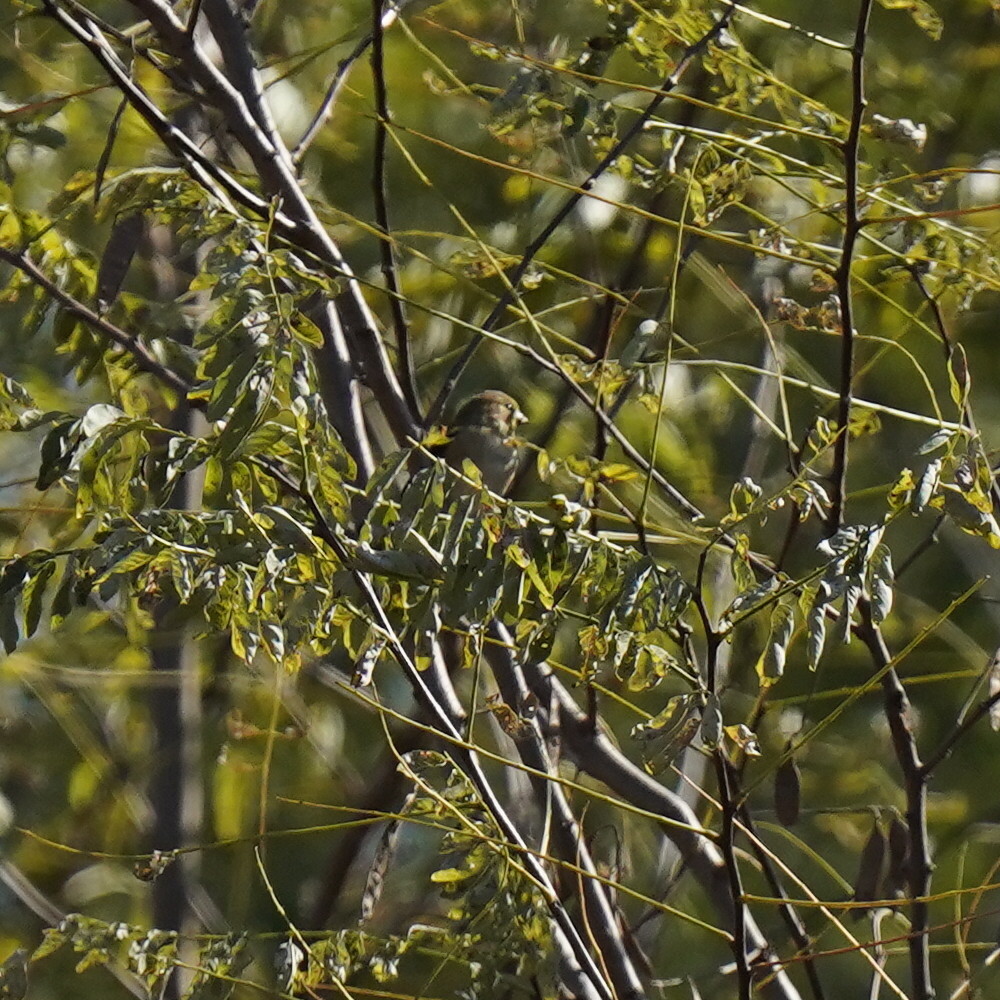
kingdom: Animalia
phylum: Chordata
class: Aves
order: Passeriformes
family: Fringillidae
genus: Spinus
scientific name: Spinus tristis
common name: American goldfinch
